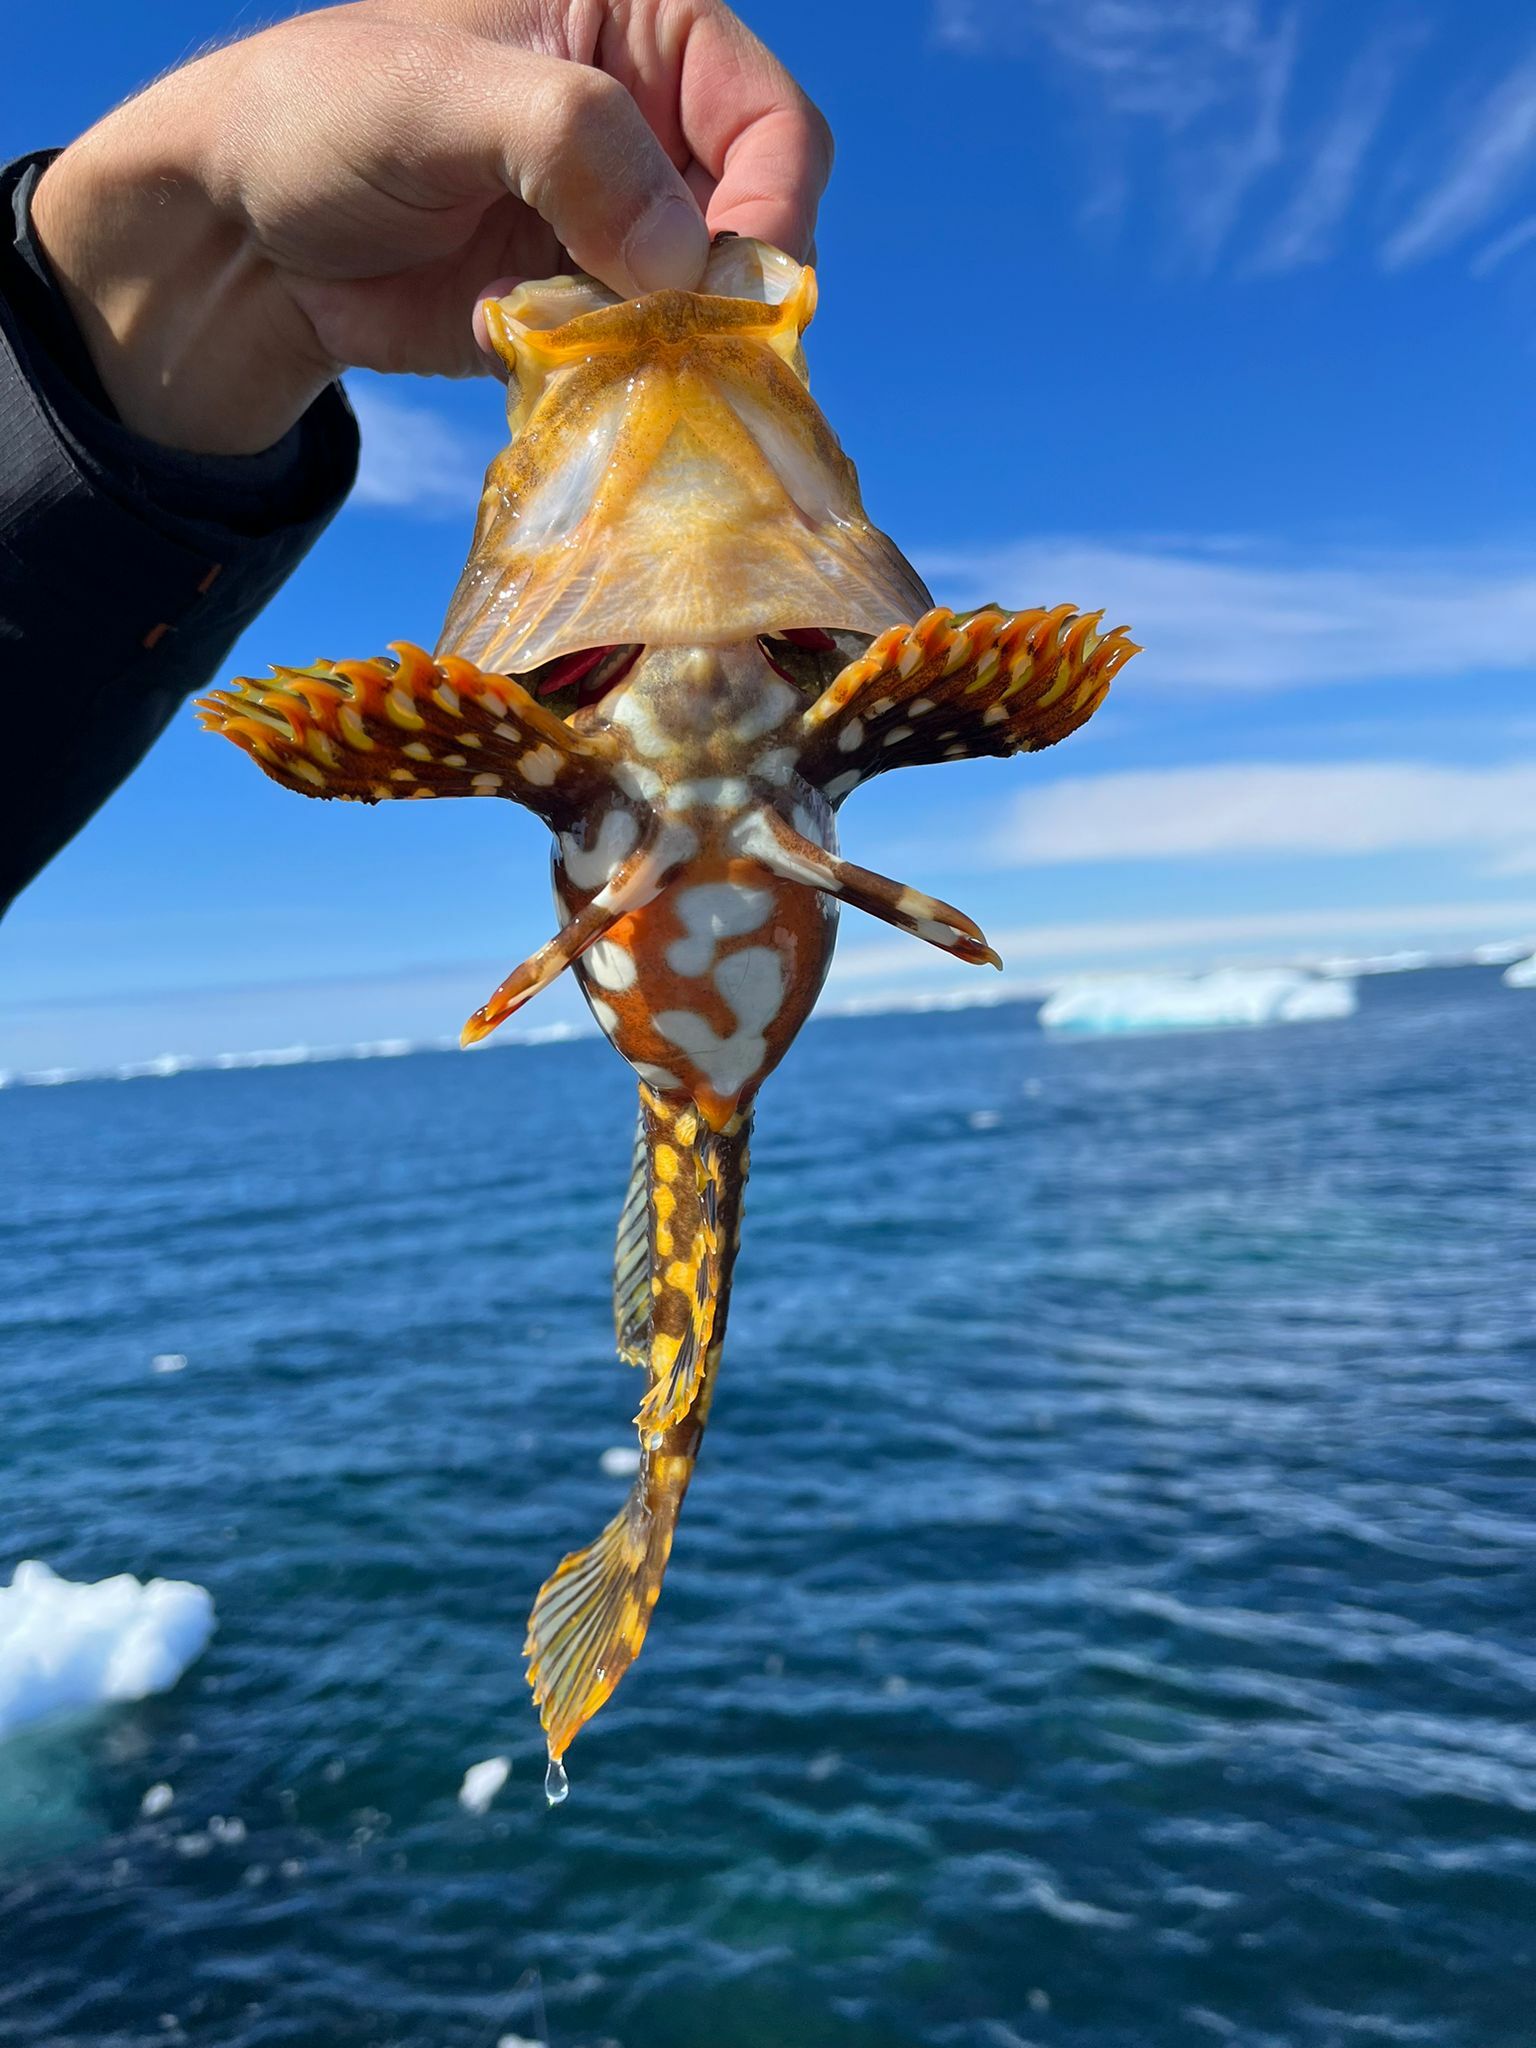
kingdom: Animalia
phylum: Chordata
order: Scorpaeniformes
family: Cottidae
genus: Myoxocephalus
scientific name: Myoxocephalus scorpius
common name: Shorthorn sculpin
